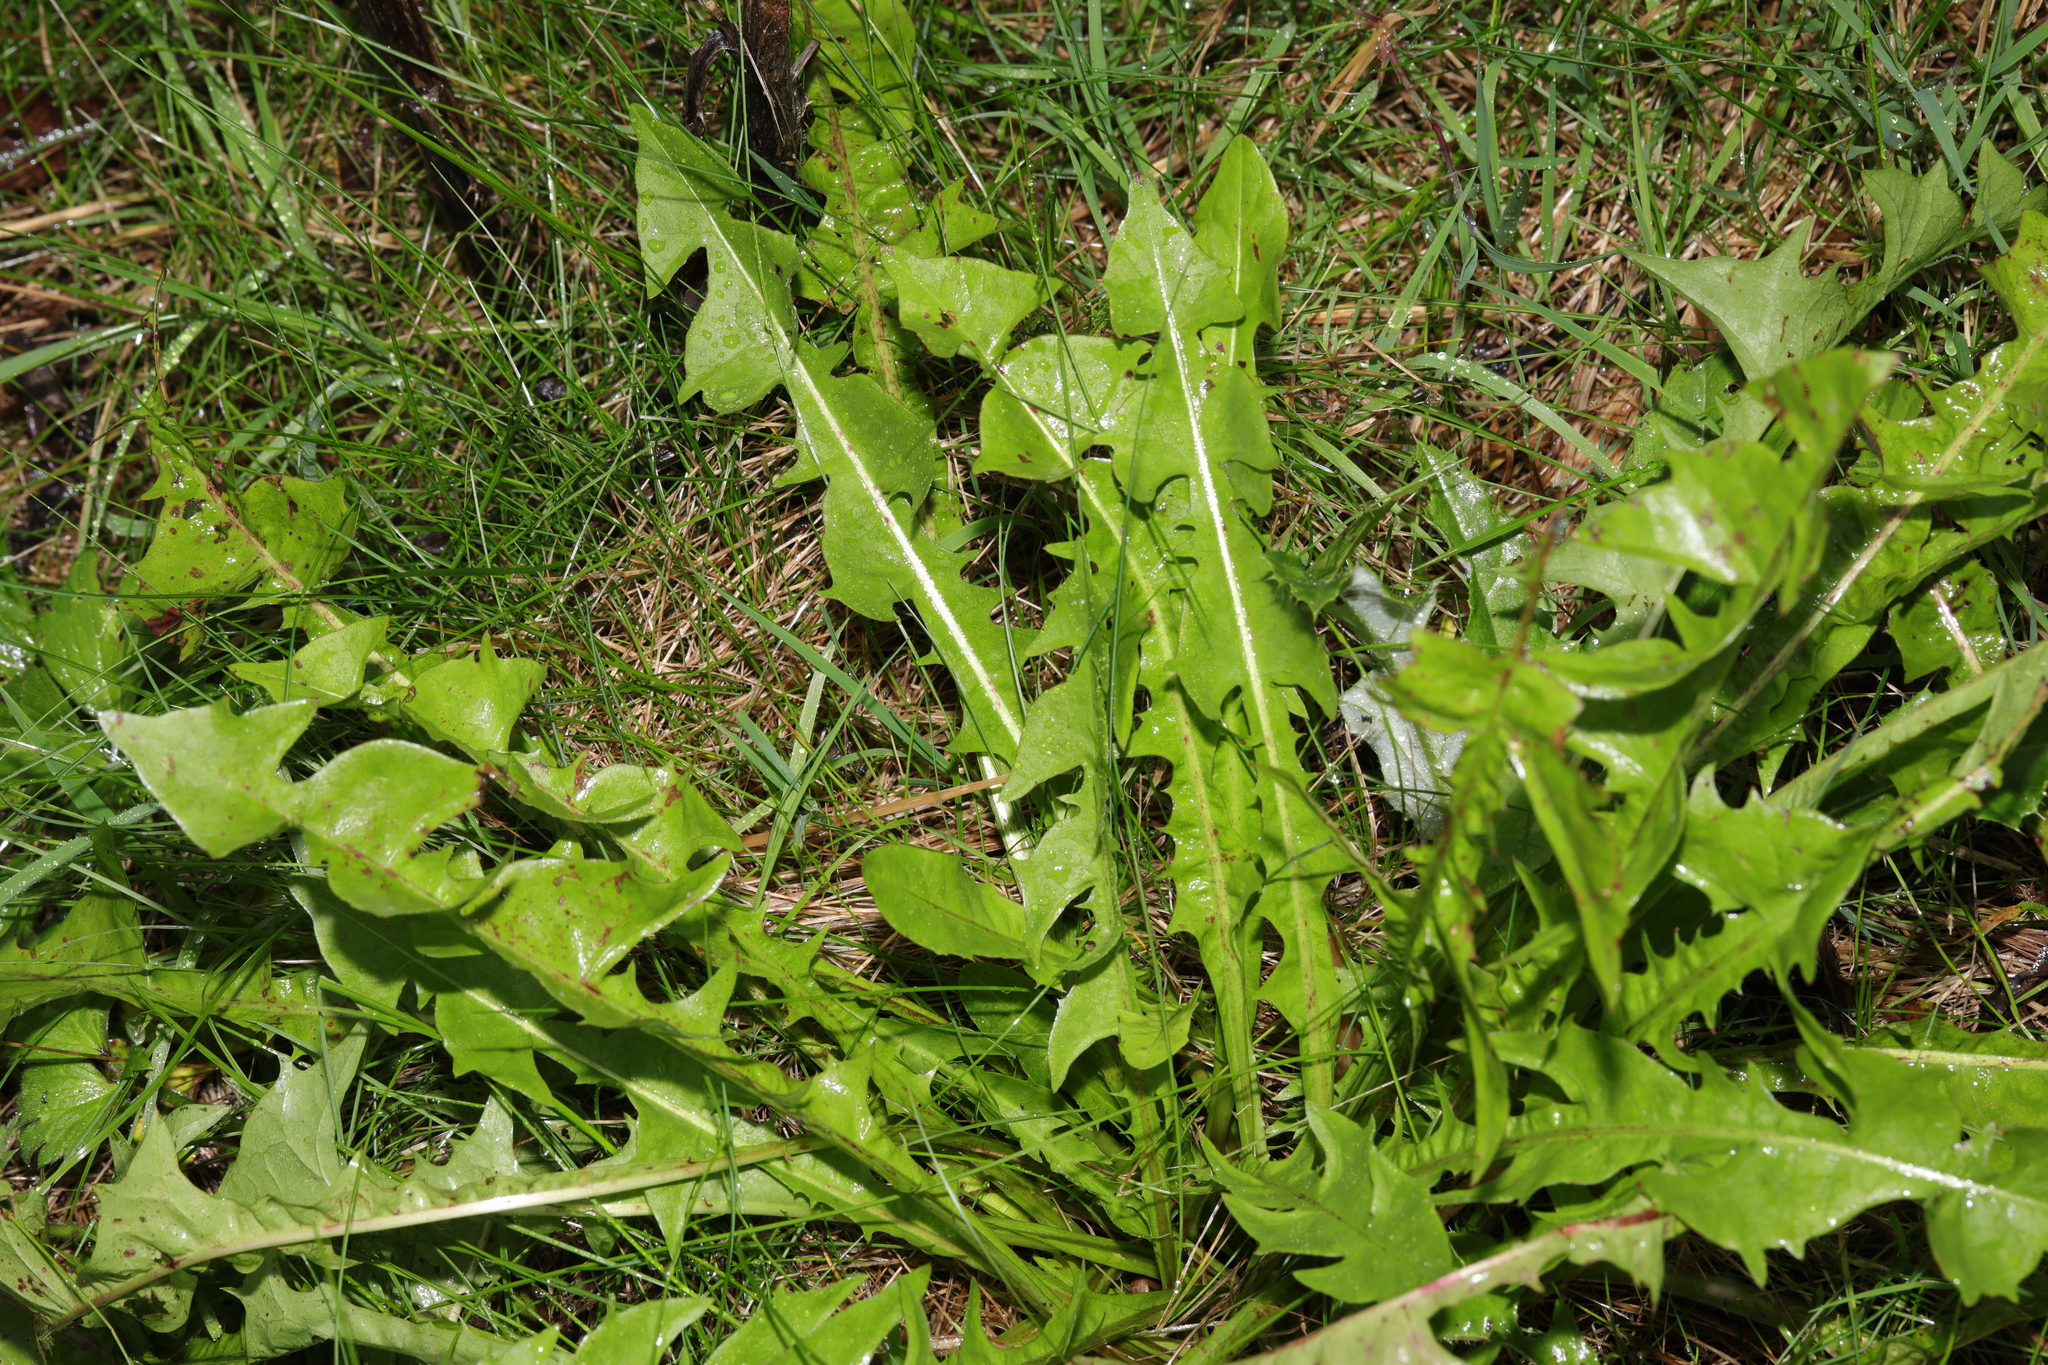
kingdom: Plantae
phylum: Tracheophyta
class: Magnoliopsida
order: Asterales
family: Asteraceae
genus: Taraxacum
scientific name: Taraxacum officinale
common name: Common dandelion
